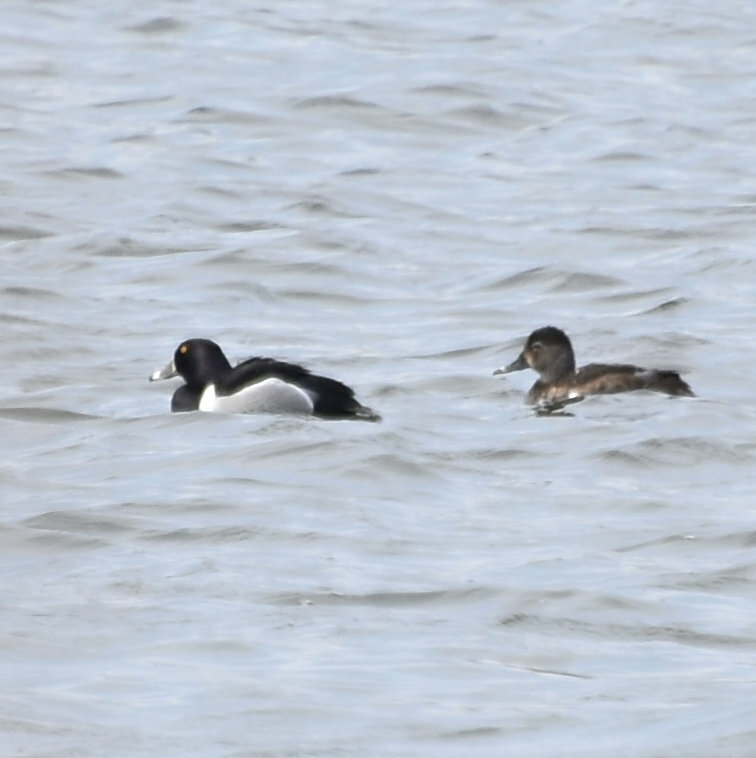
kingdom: Animalia
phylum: Chordata
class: Aves
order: Anseriformes
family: Anatidae
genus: Aythya
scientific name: Aythya collaris
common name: Ring-necked duck
